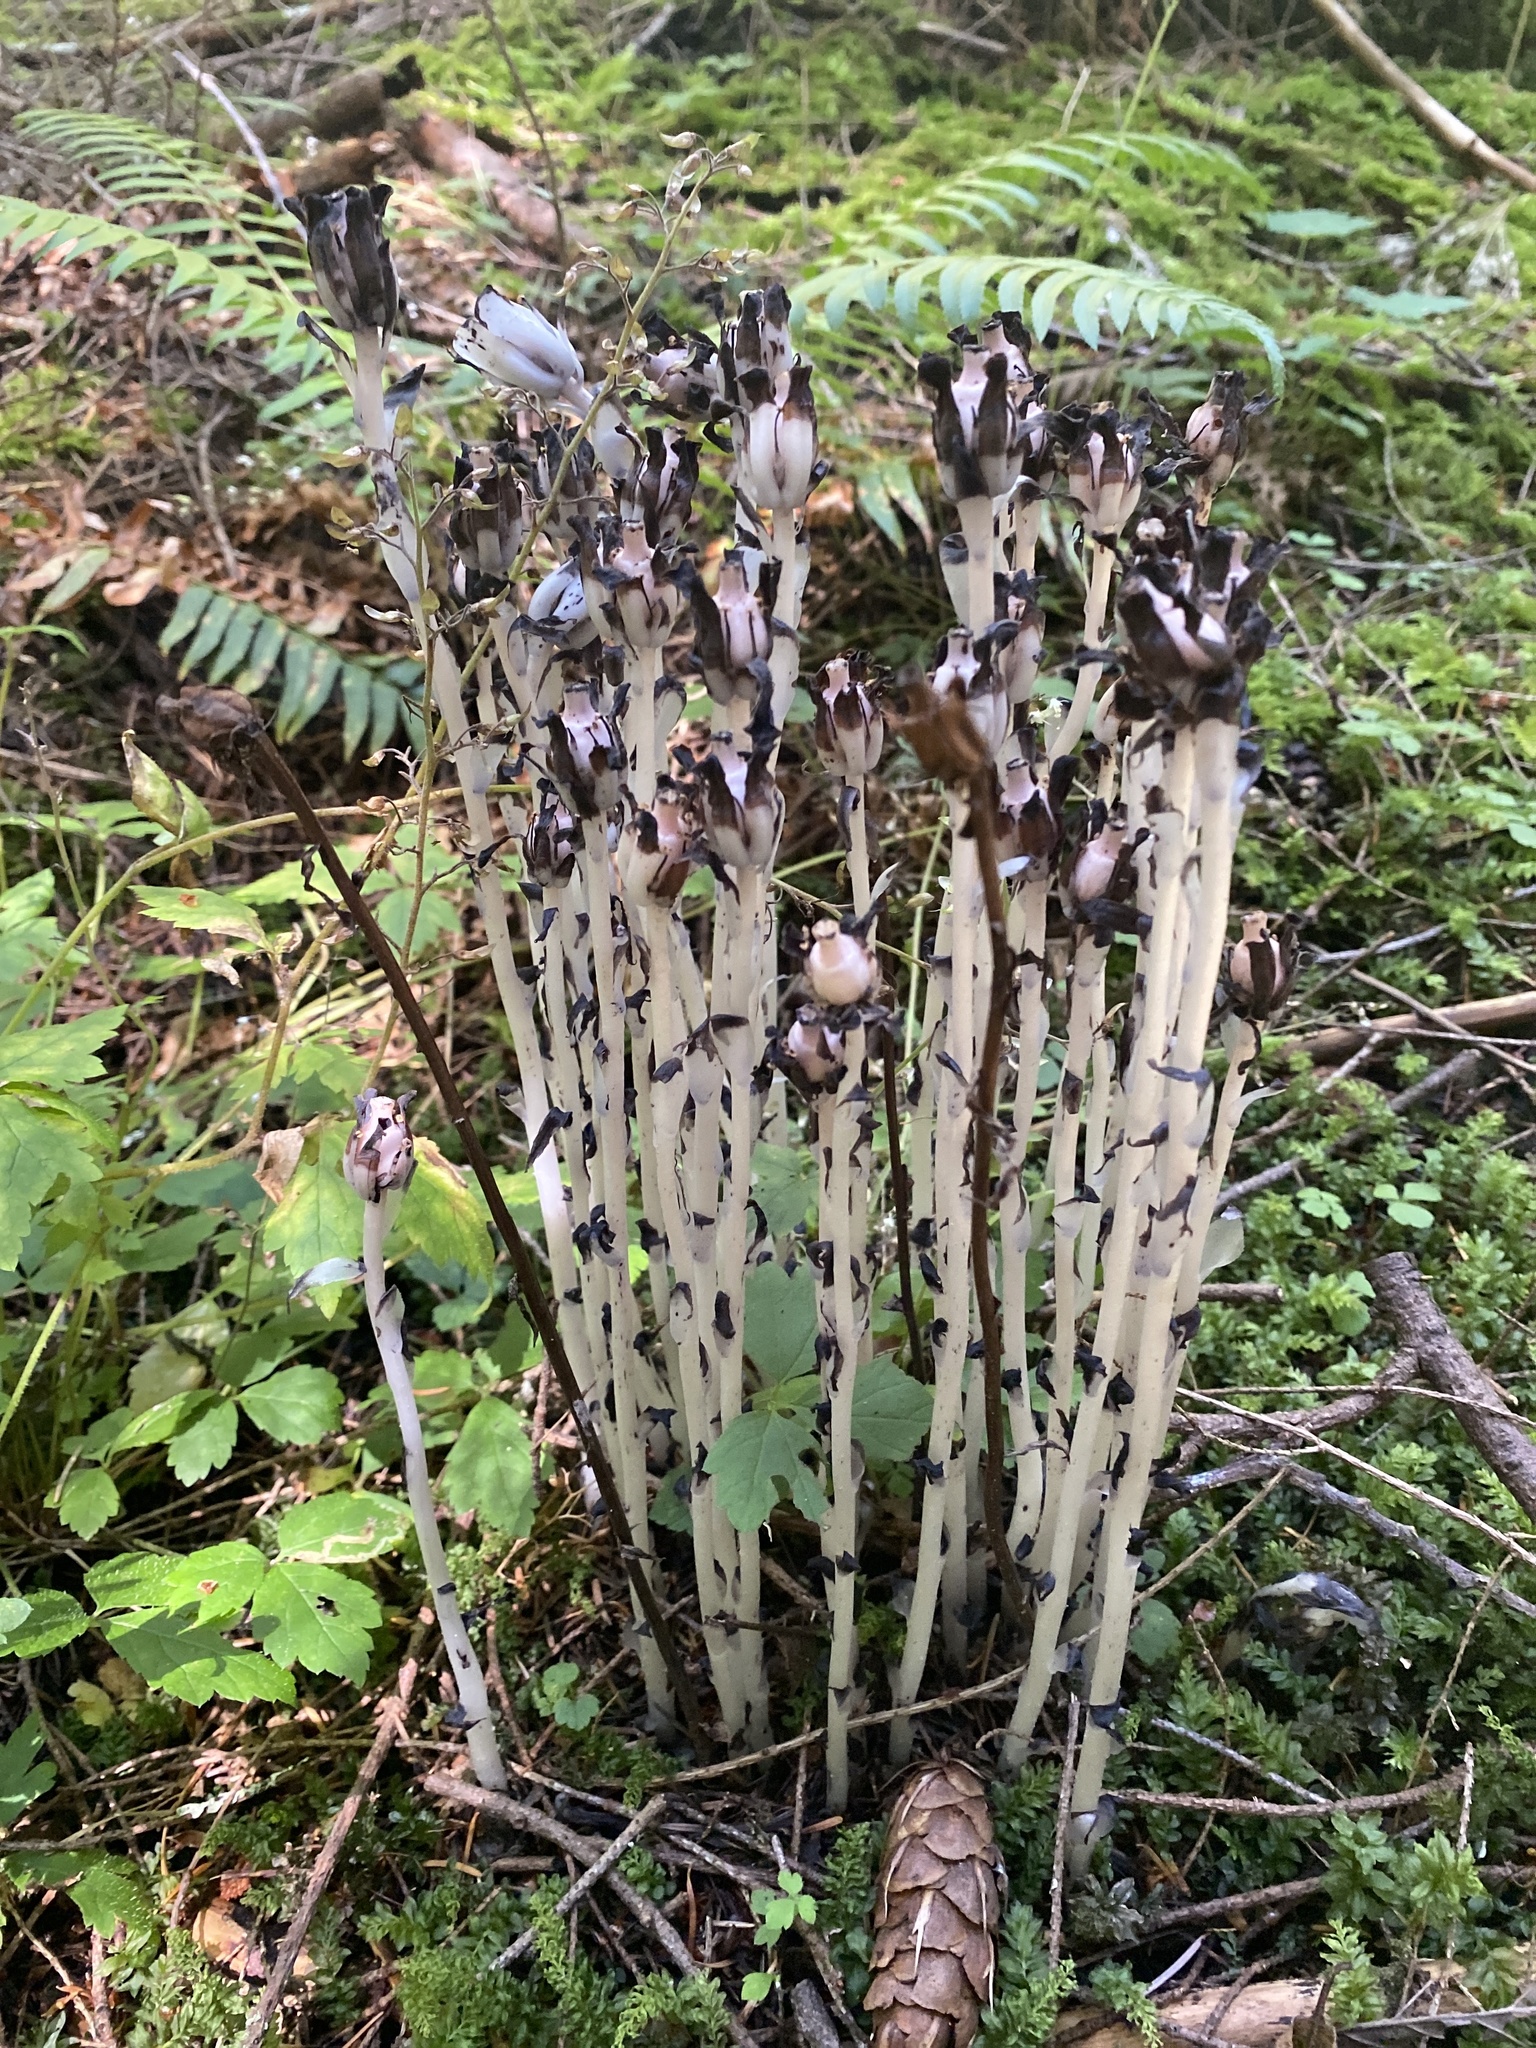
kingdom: Plantae
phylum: Tracheophyta
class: Magnoliopsida
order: Ericales
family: Ericaceae
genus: Monotropa
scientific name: Monotropa uniflora
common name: Convulsion root
